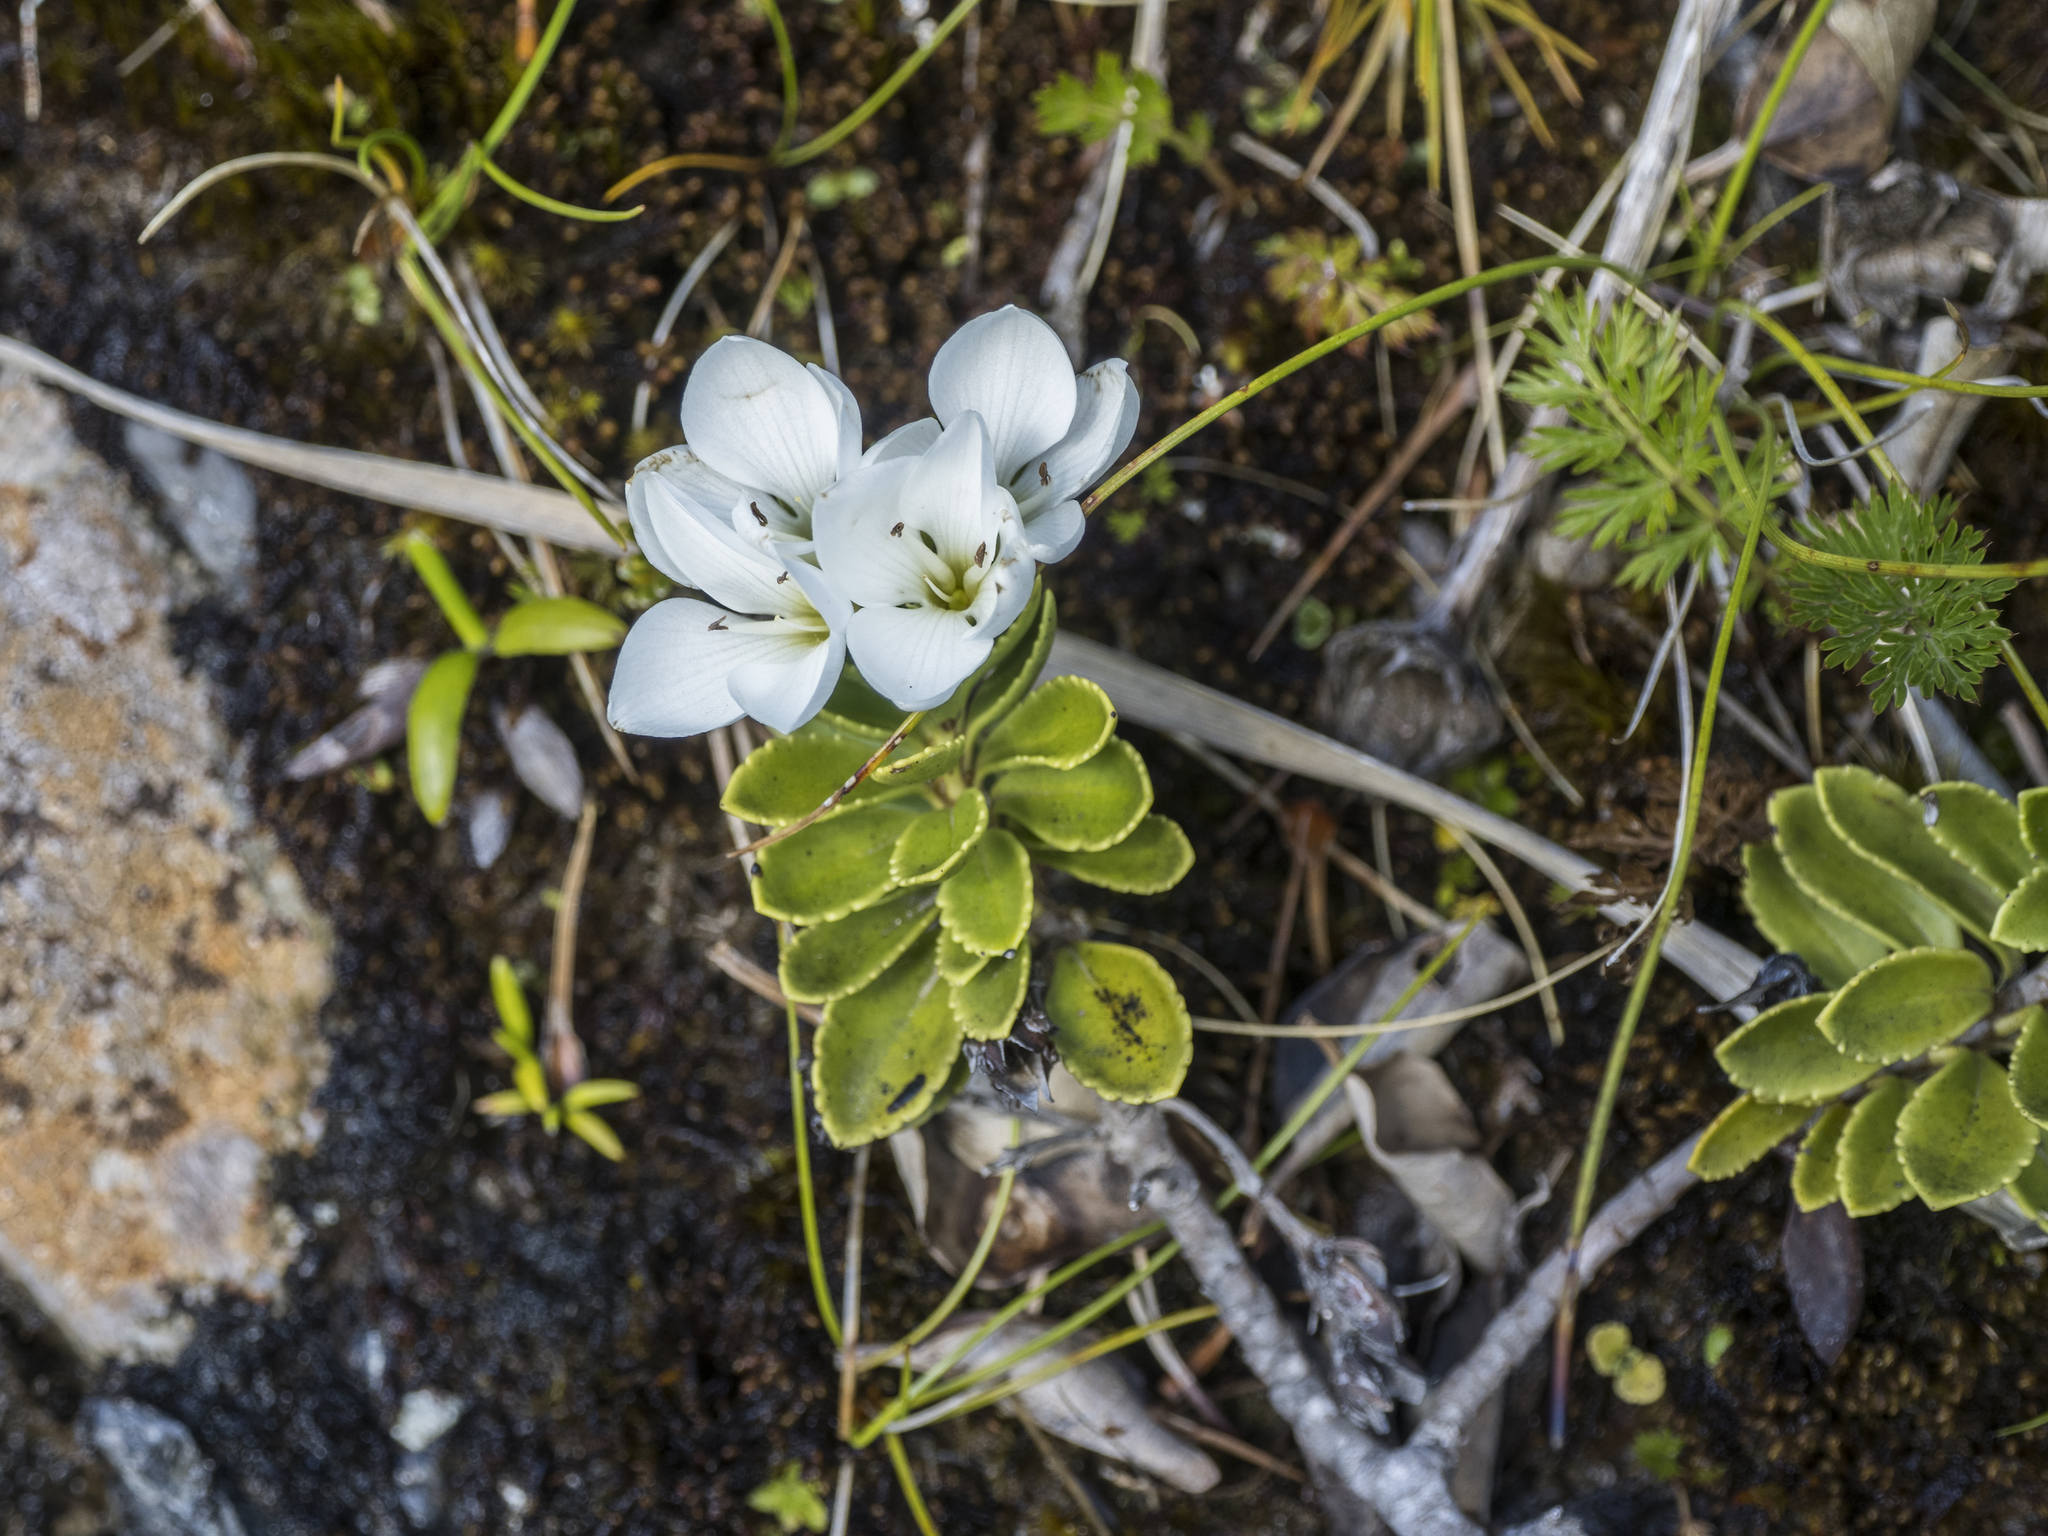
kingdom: Plantae
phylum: Tracheophyta
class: Magnoliopsida
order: Lamiales
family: Plantaginaceae
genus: Veronica
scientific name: Veronica macrantha
